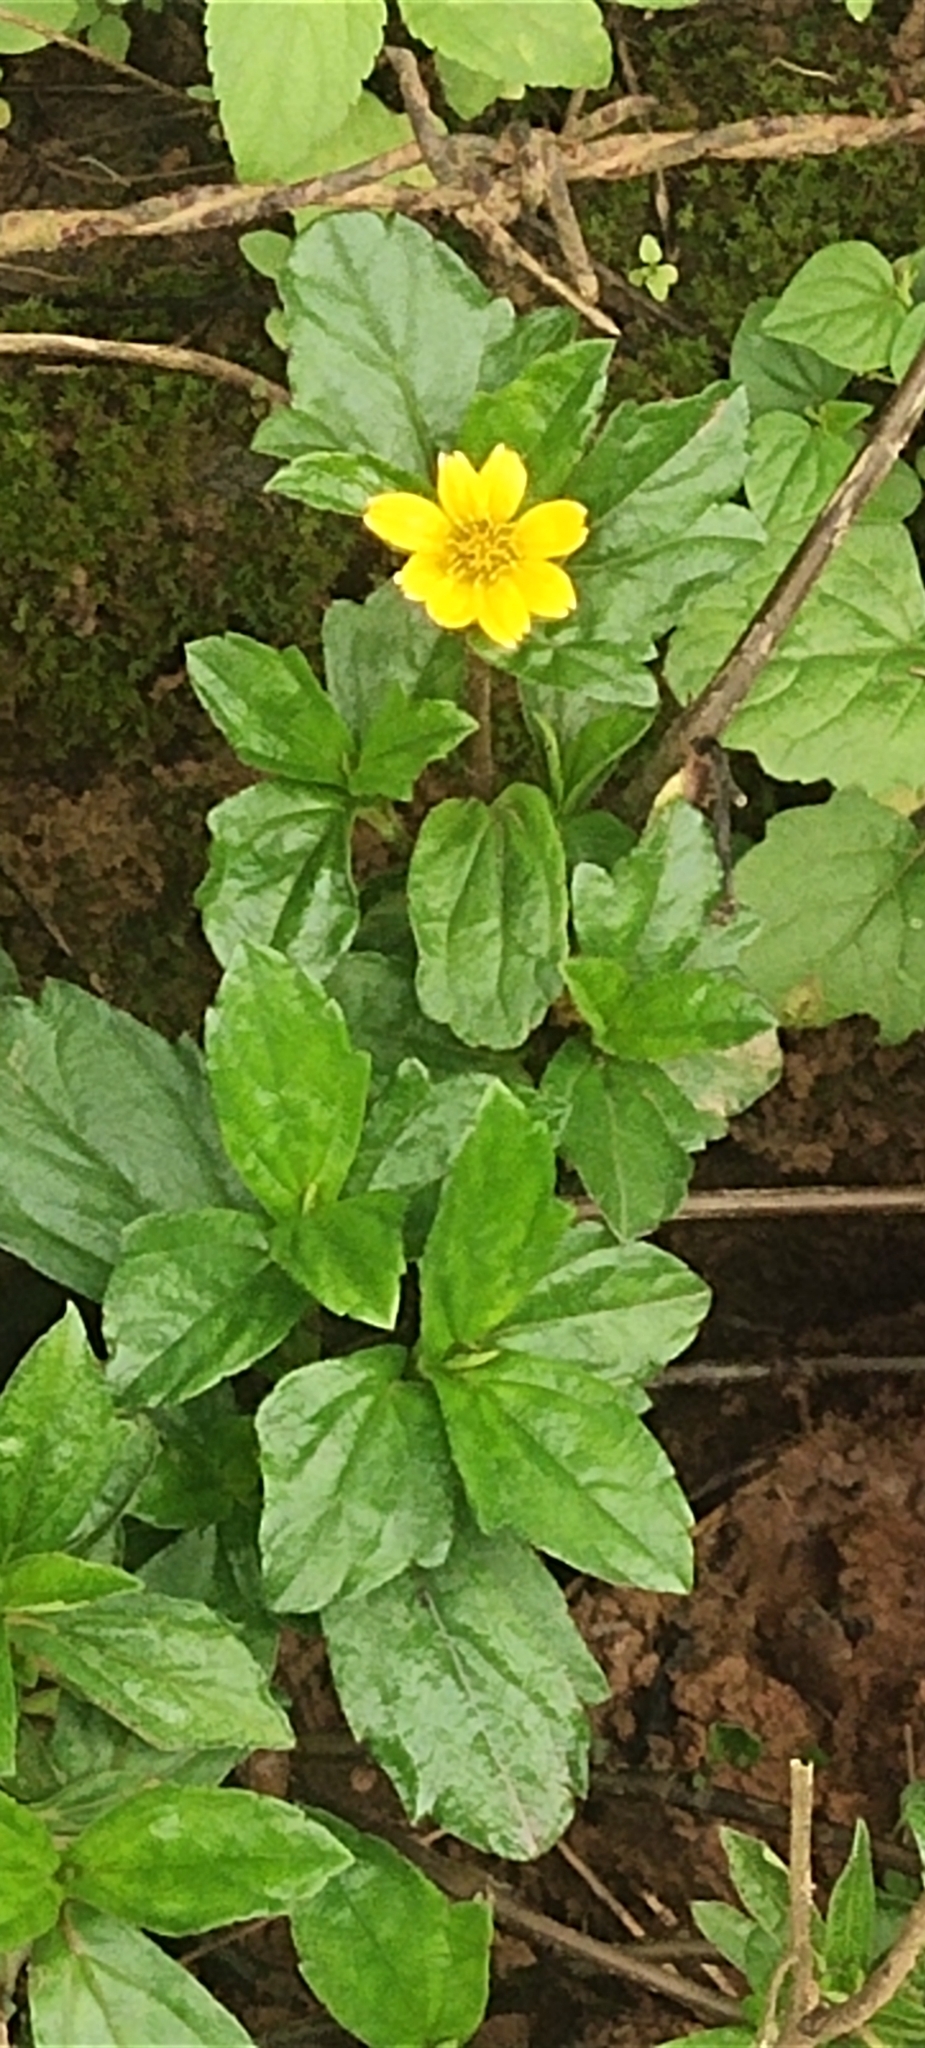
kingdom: Plantae
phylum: Tracheophyta
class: Magnoliopsida
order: Asterales
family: Asteraceae
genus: Sphagneticola
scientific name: Sphagneticola trilobata
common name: Bay biscayne creeping-oxeye
